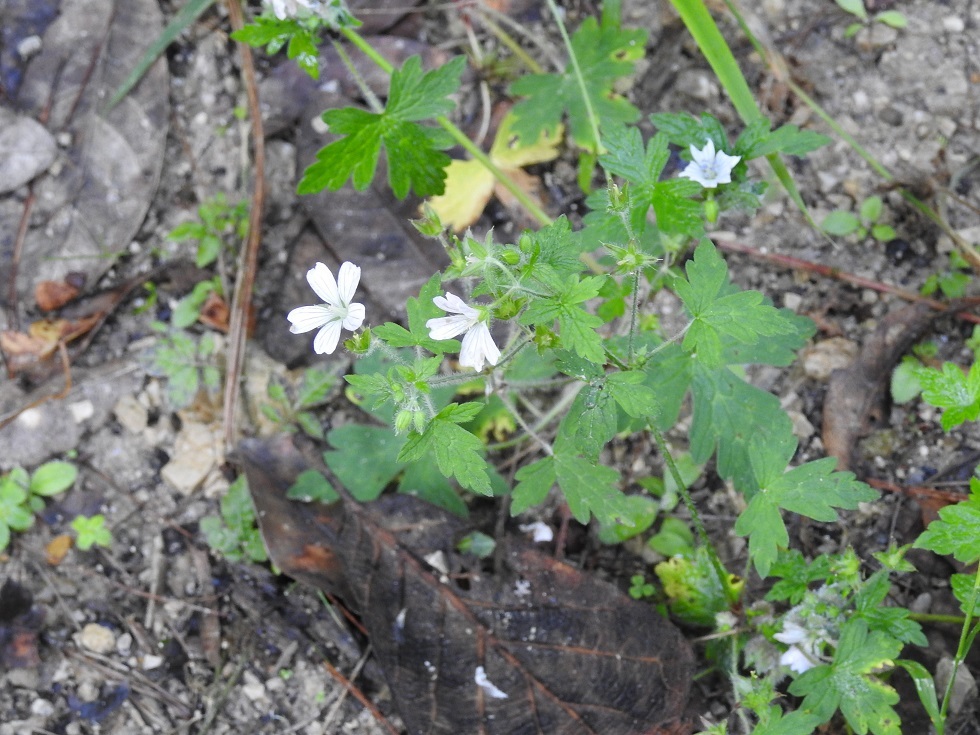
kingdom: Plantae
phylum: Tracheophyta
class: Magnoliopsida
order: Geraniales
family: Geraniaceae
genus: Geranium
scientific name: Geranium seemannii
